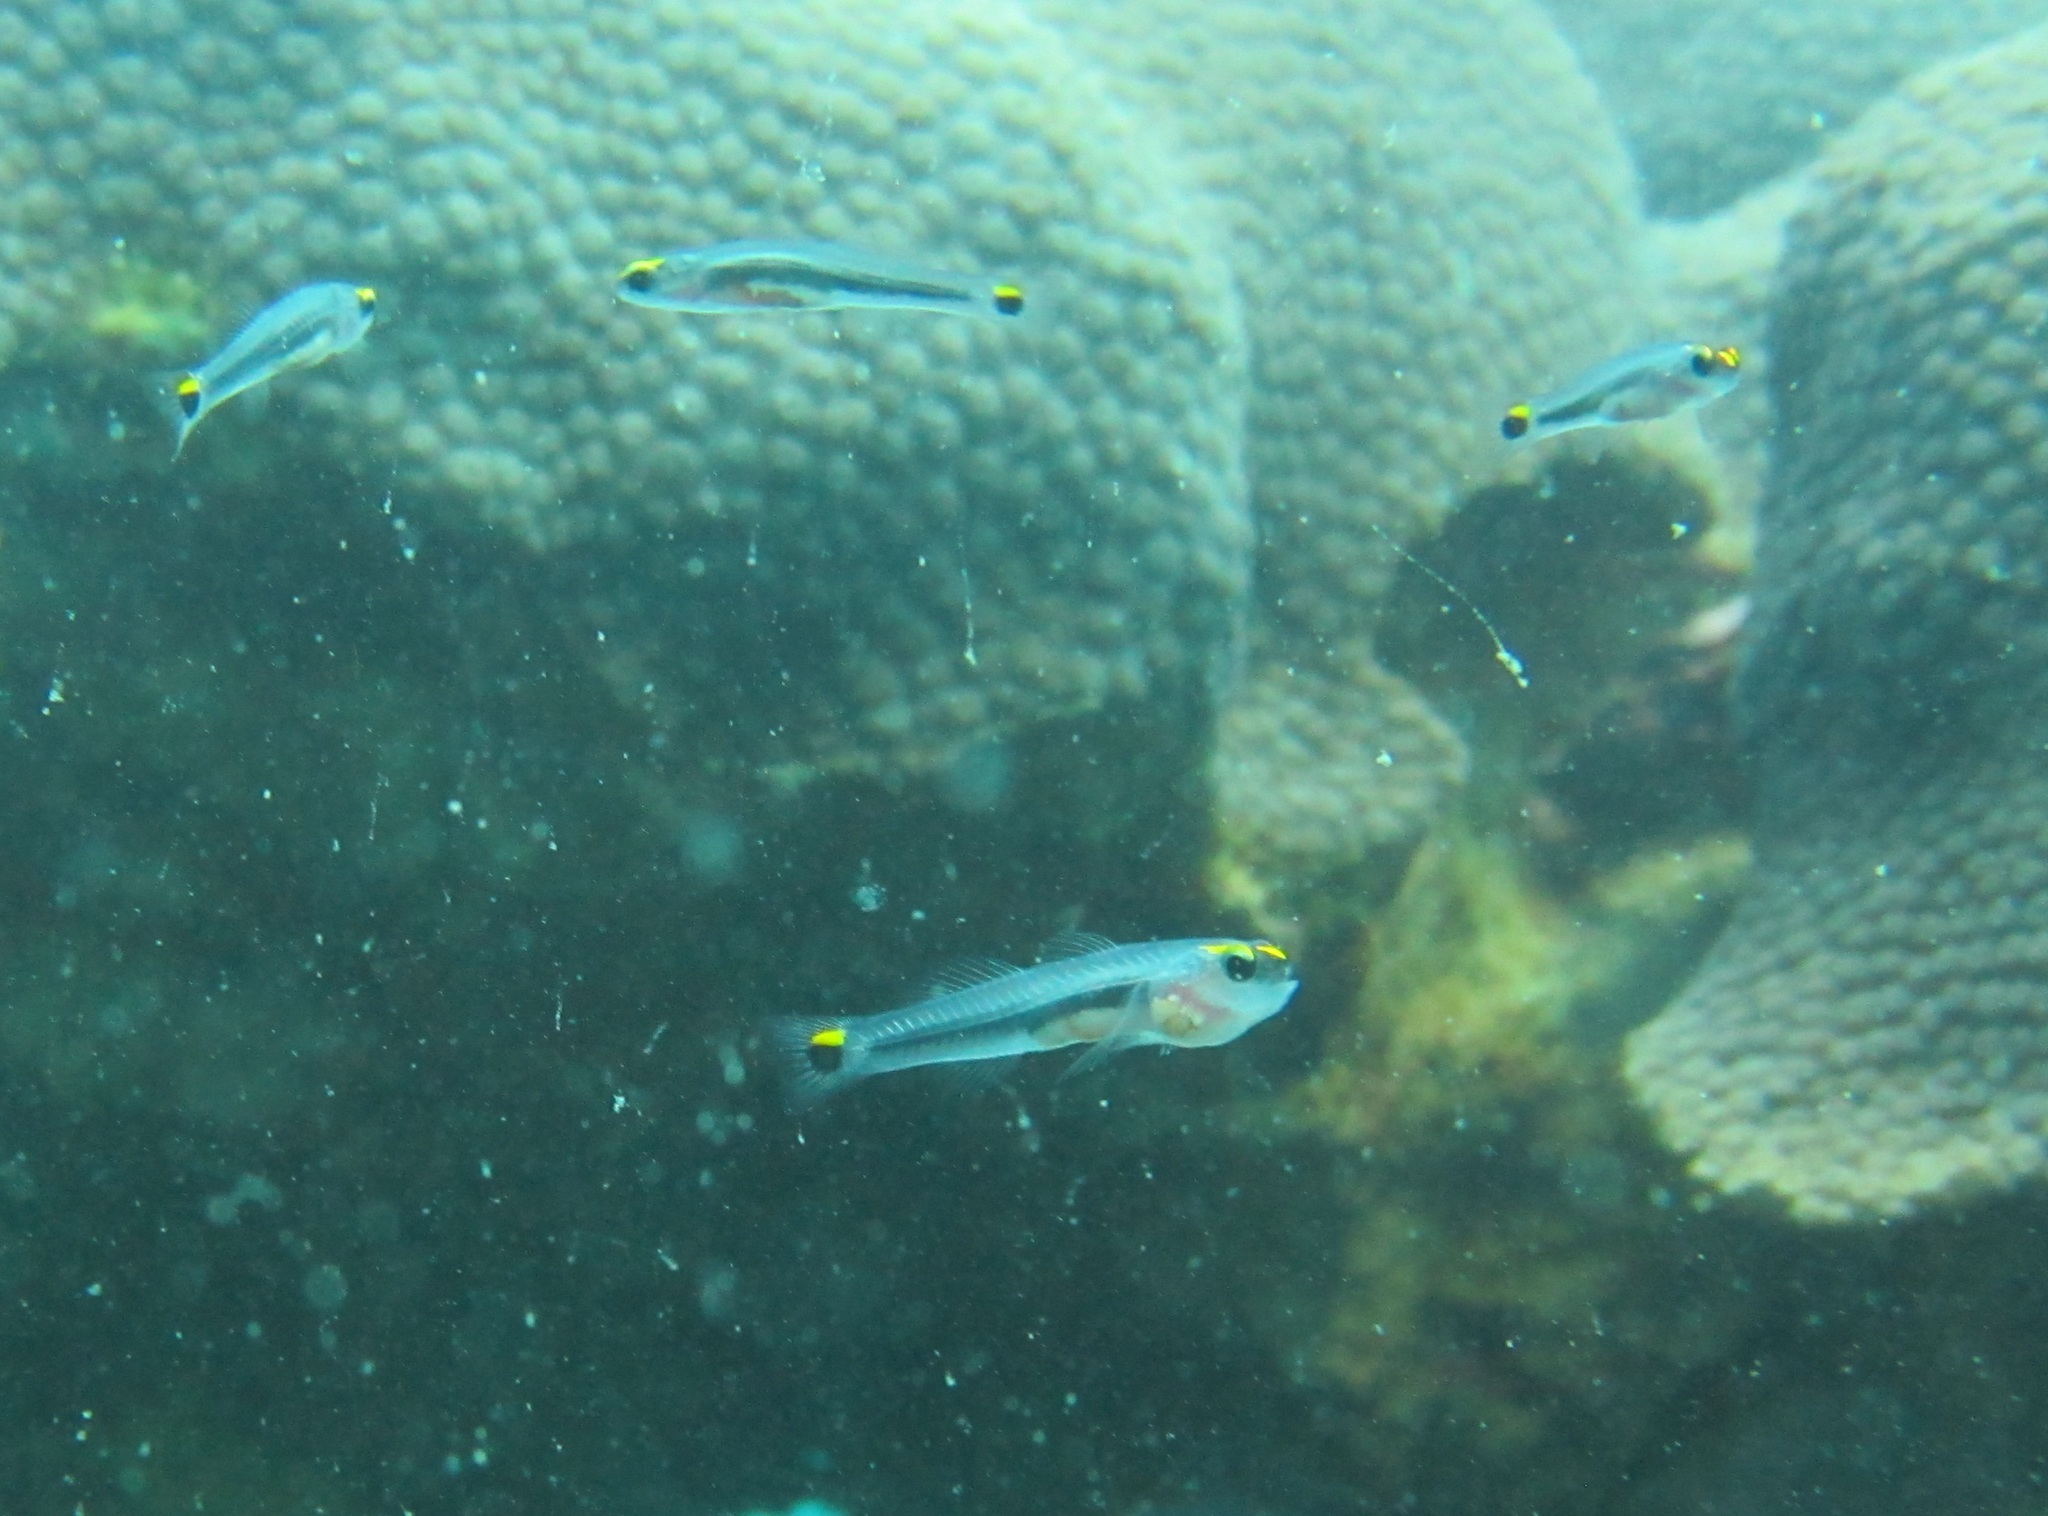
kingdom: Animalia
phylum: Chordata
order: Perciformes
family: Gobiidae
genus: Elacatinus
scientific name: Elacatinus jarocho
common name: Jarocho goby
